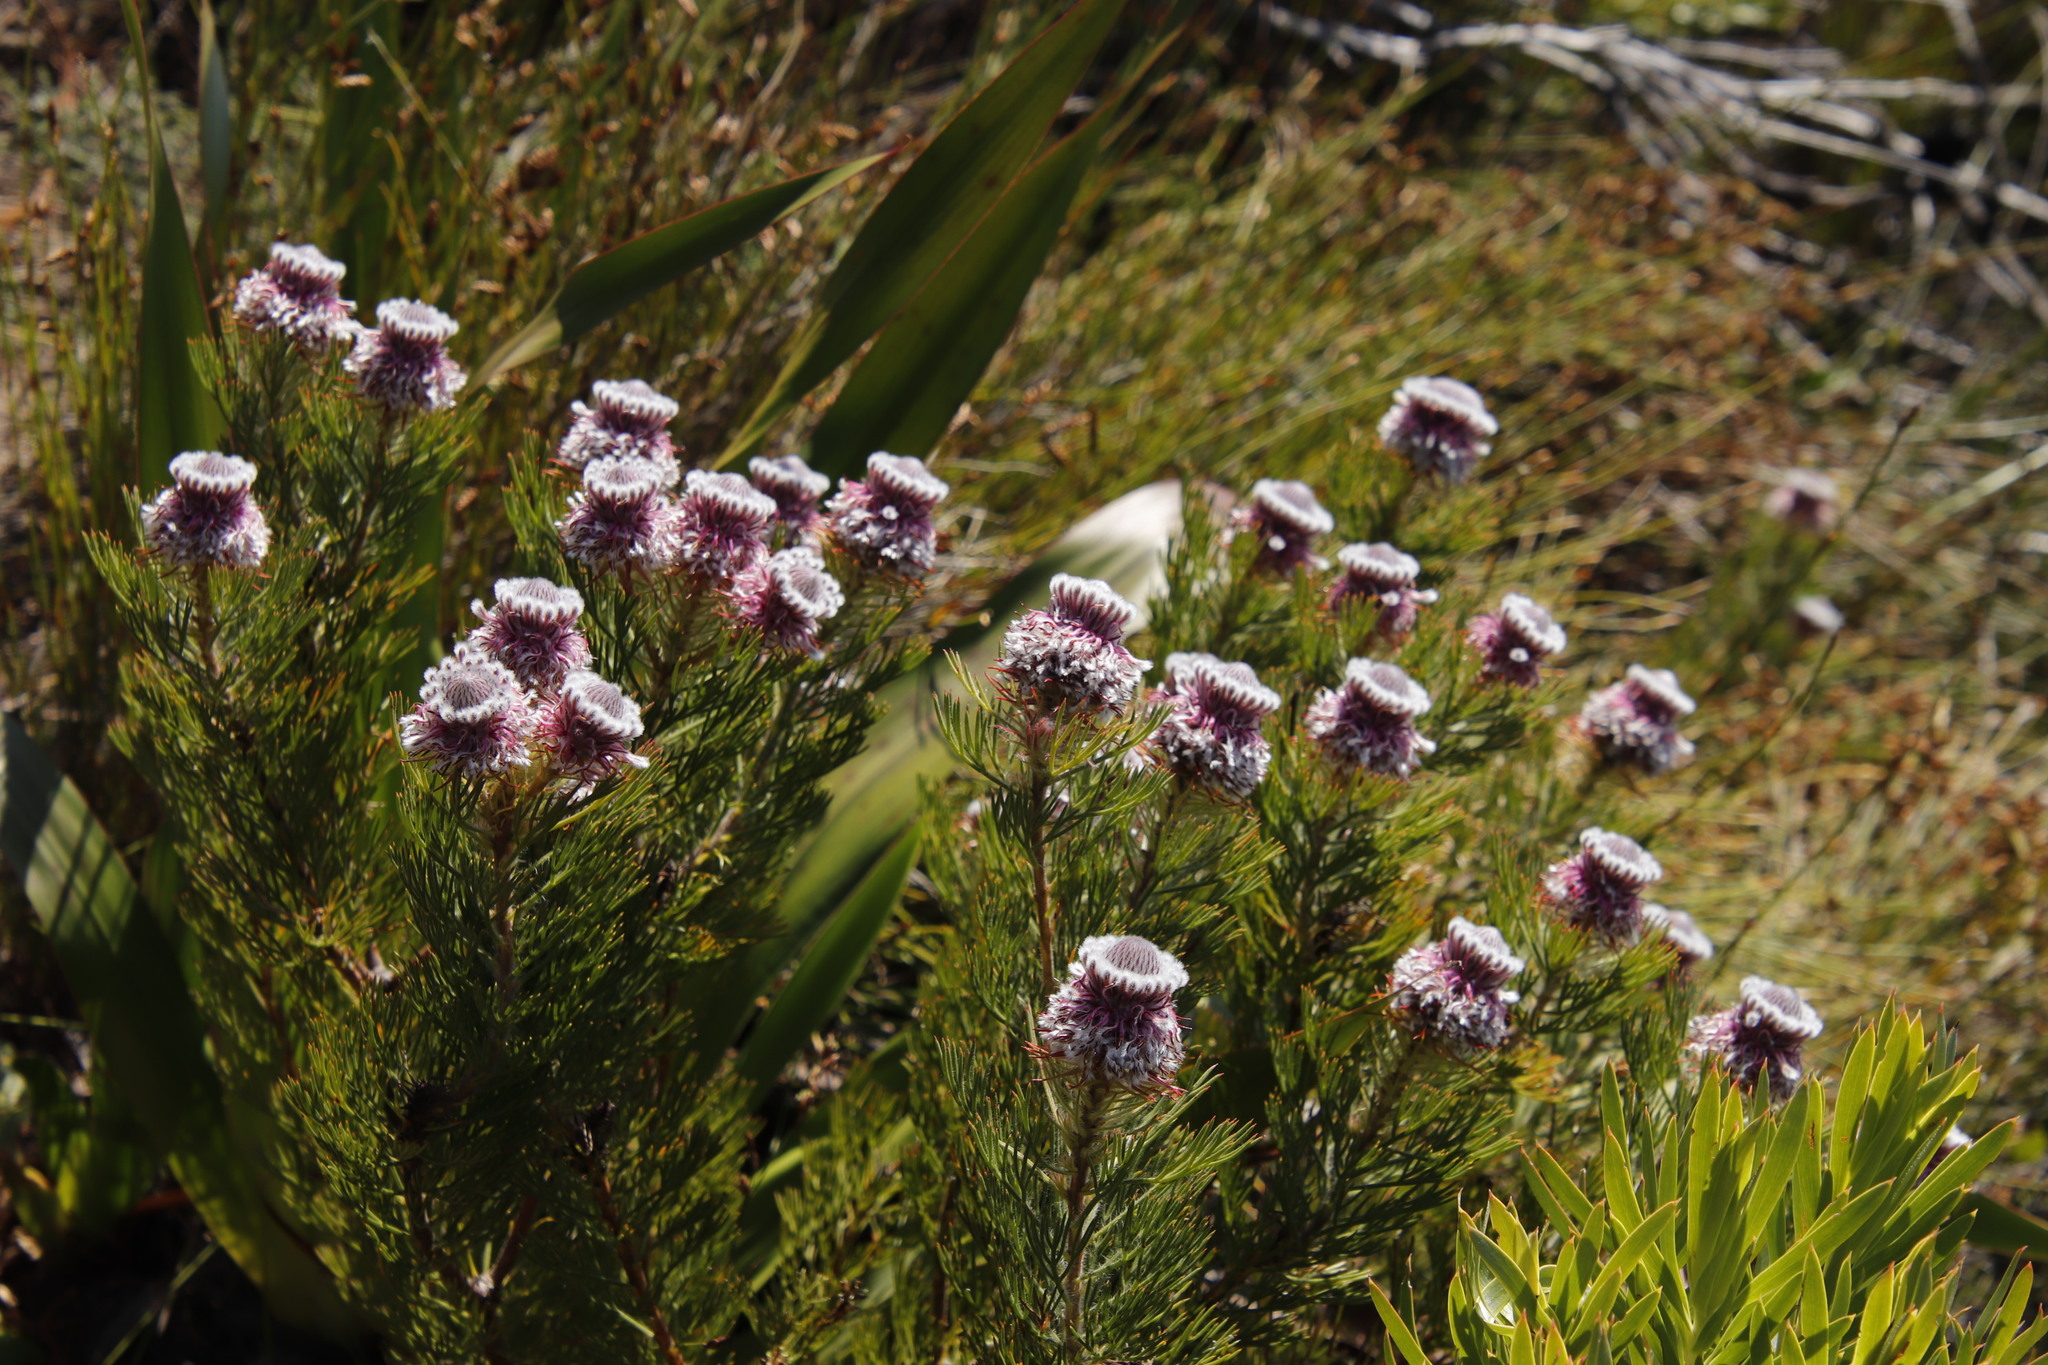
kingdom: Plantae
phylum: Tracheophyta
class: Magnoliopsida
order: Proteales
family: Proteaceae
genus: Serruria
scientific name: Serruria hirsuta
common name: Swartkops spiderhead
